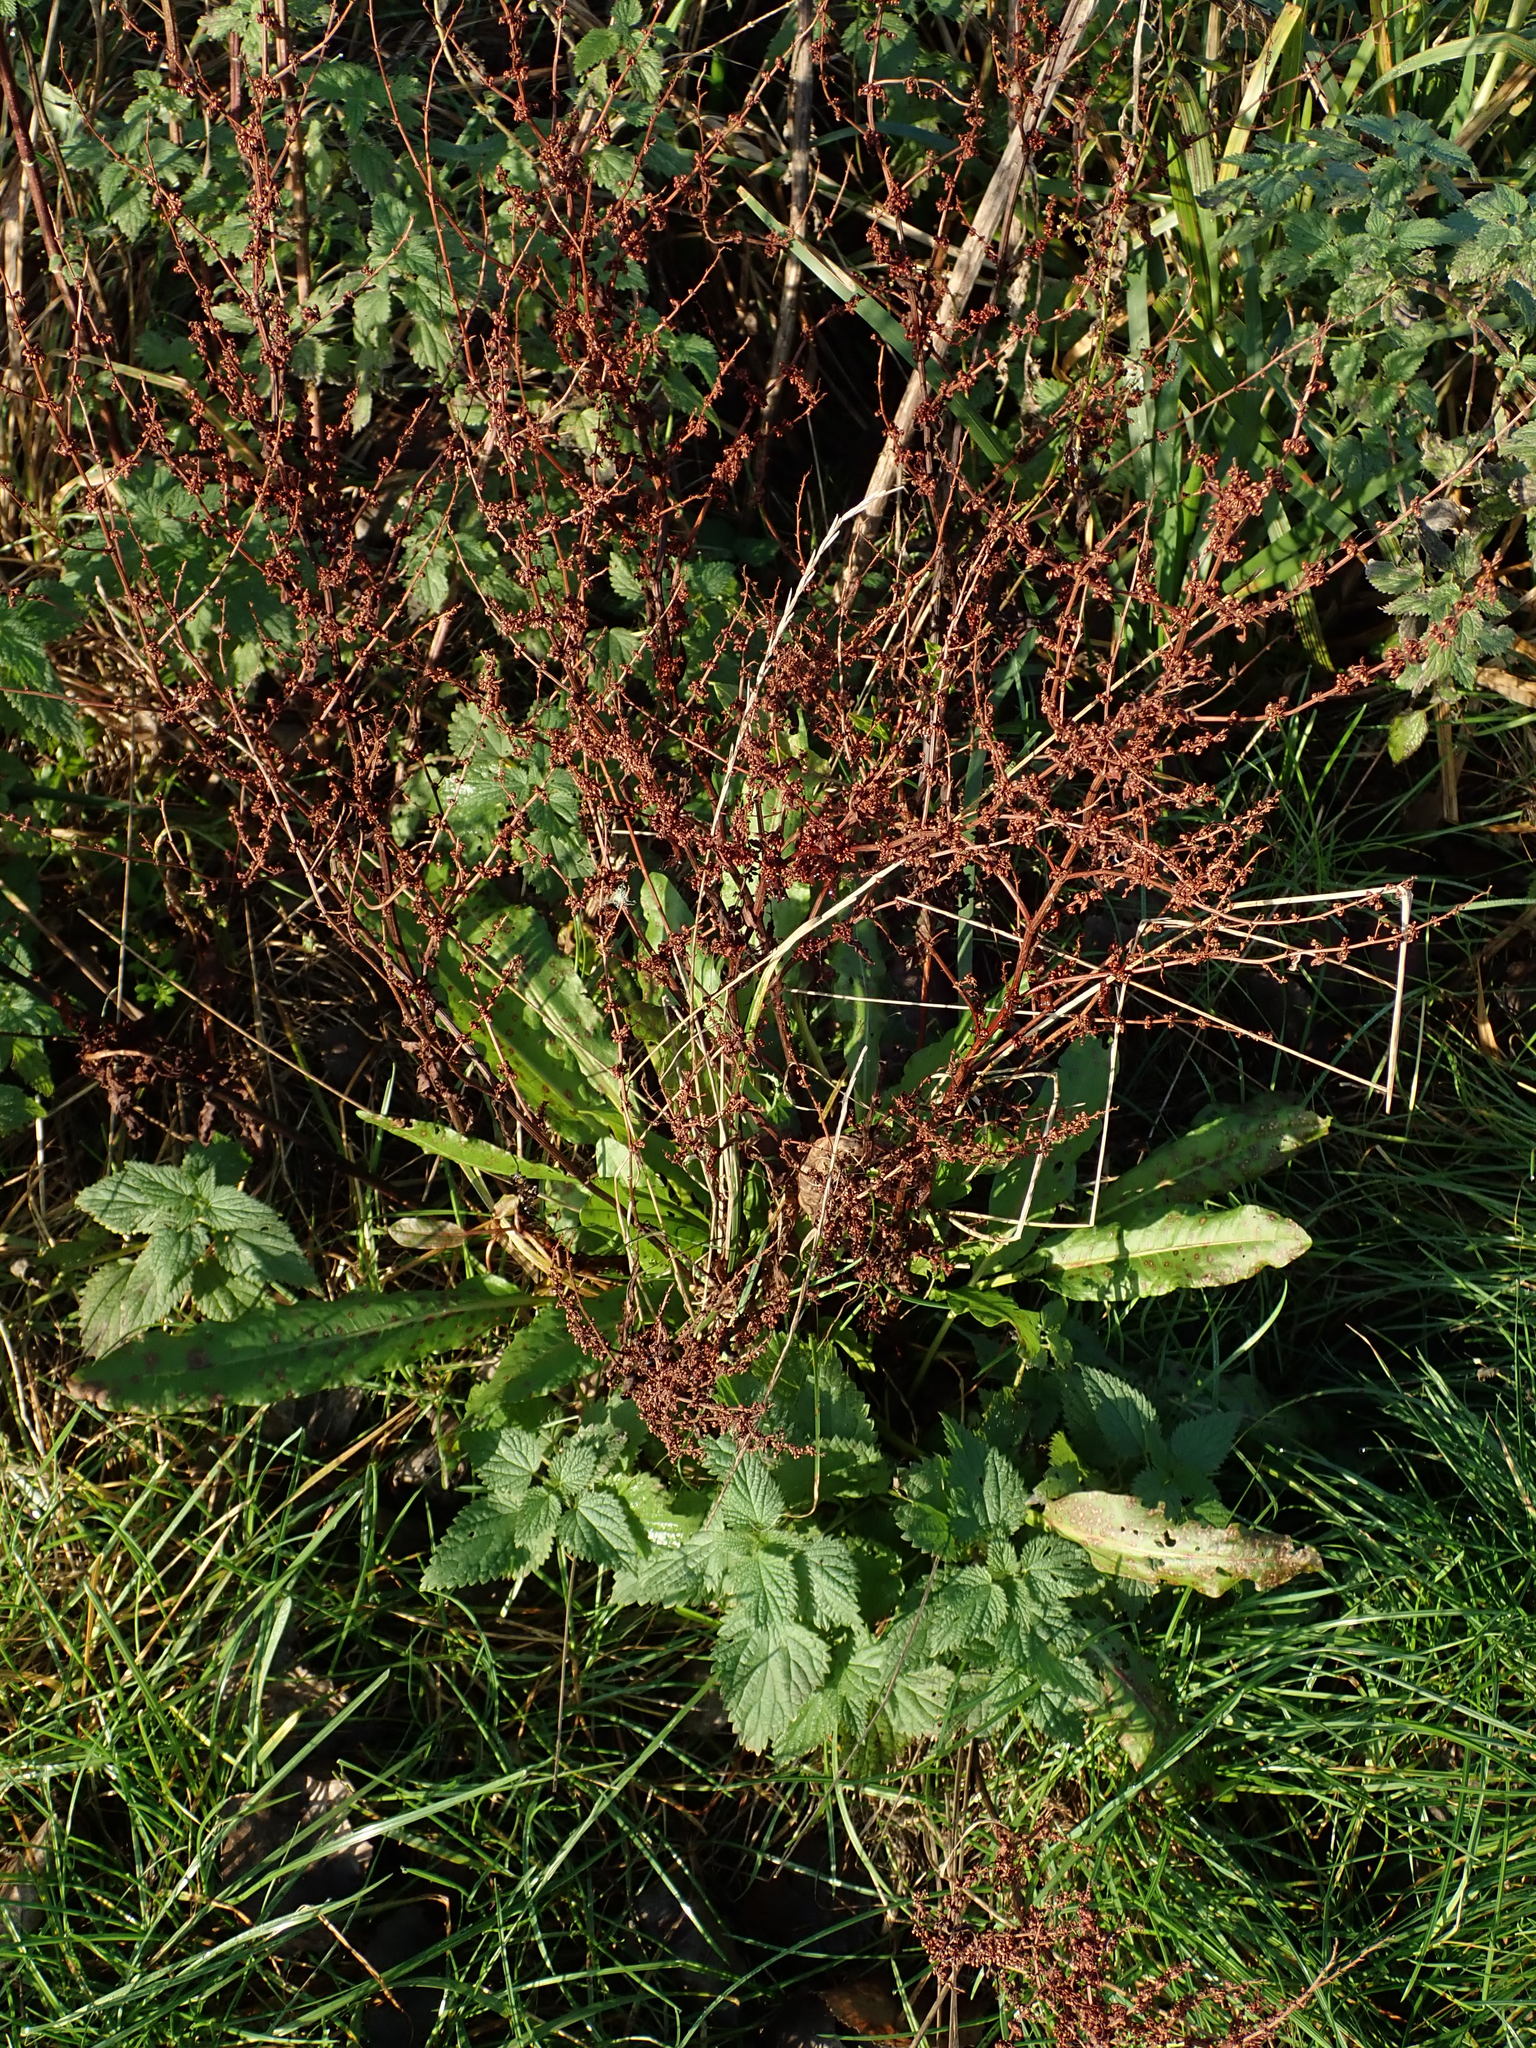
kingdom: Plantae
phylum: Tracheophyta
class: Magnoliopsida
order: Caryophyllales
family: Polygonaceae
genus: Rumex
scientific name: Rumex conglomeratus
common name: Clustered dock
